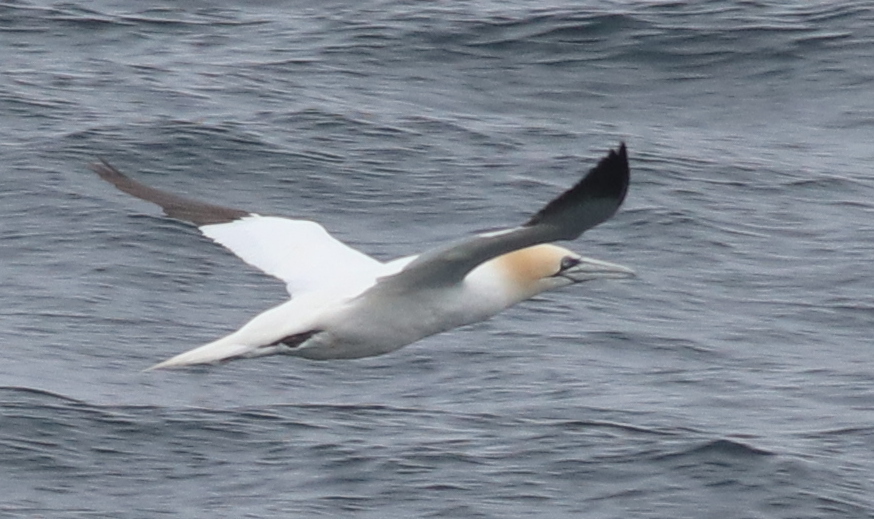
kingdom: Animalia
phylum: Chordata
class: Aves
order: Suliformes
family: Sulidae
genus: Morus
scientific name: Morus bassanus
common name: Northern gannet
